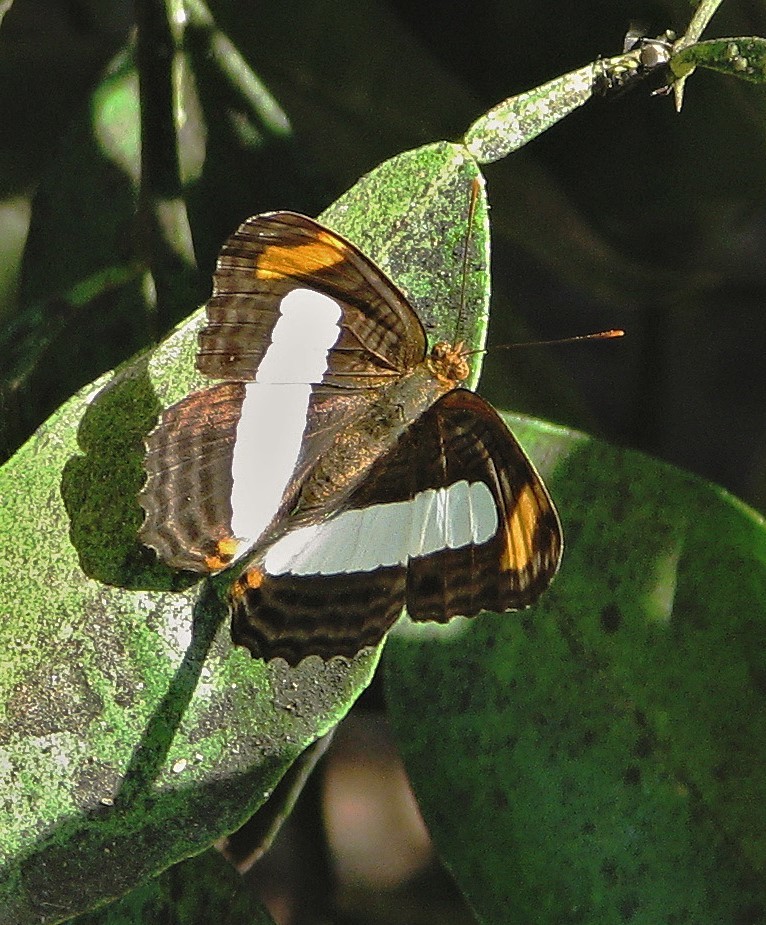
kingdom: Animalia
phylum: Arthropoda
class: Insecta
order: Lepidoptera
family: Nymphalidae
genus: Limenitis
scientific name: Limenitis iphiclus
